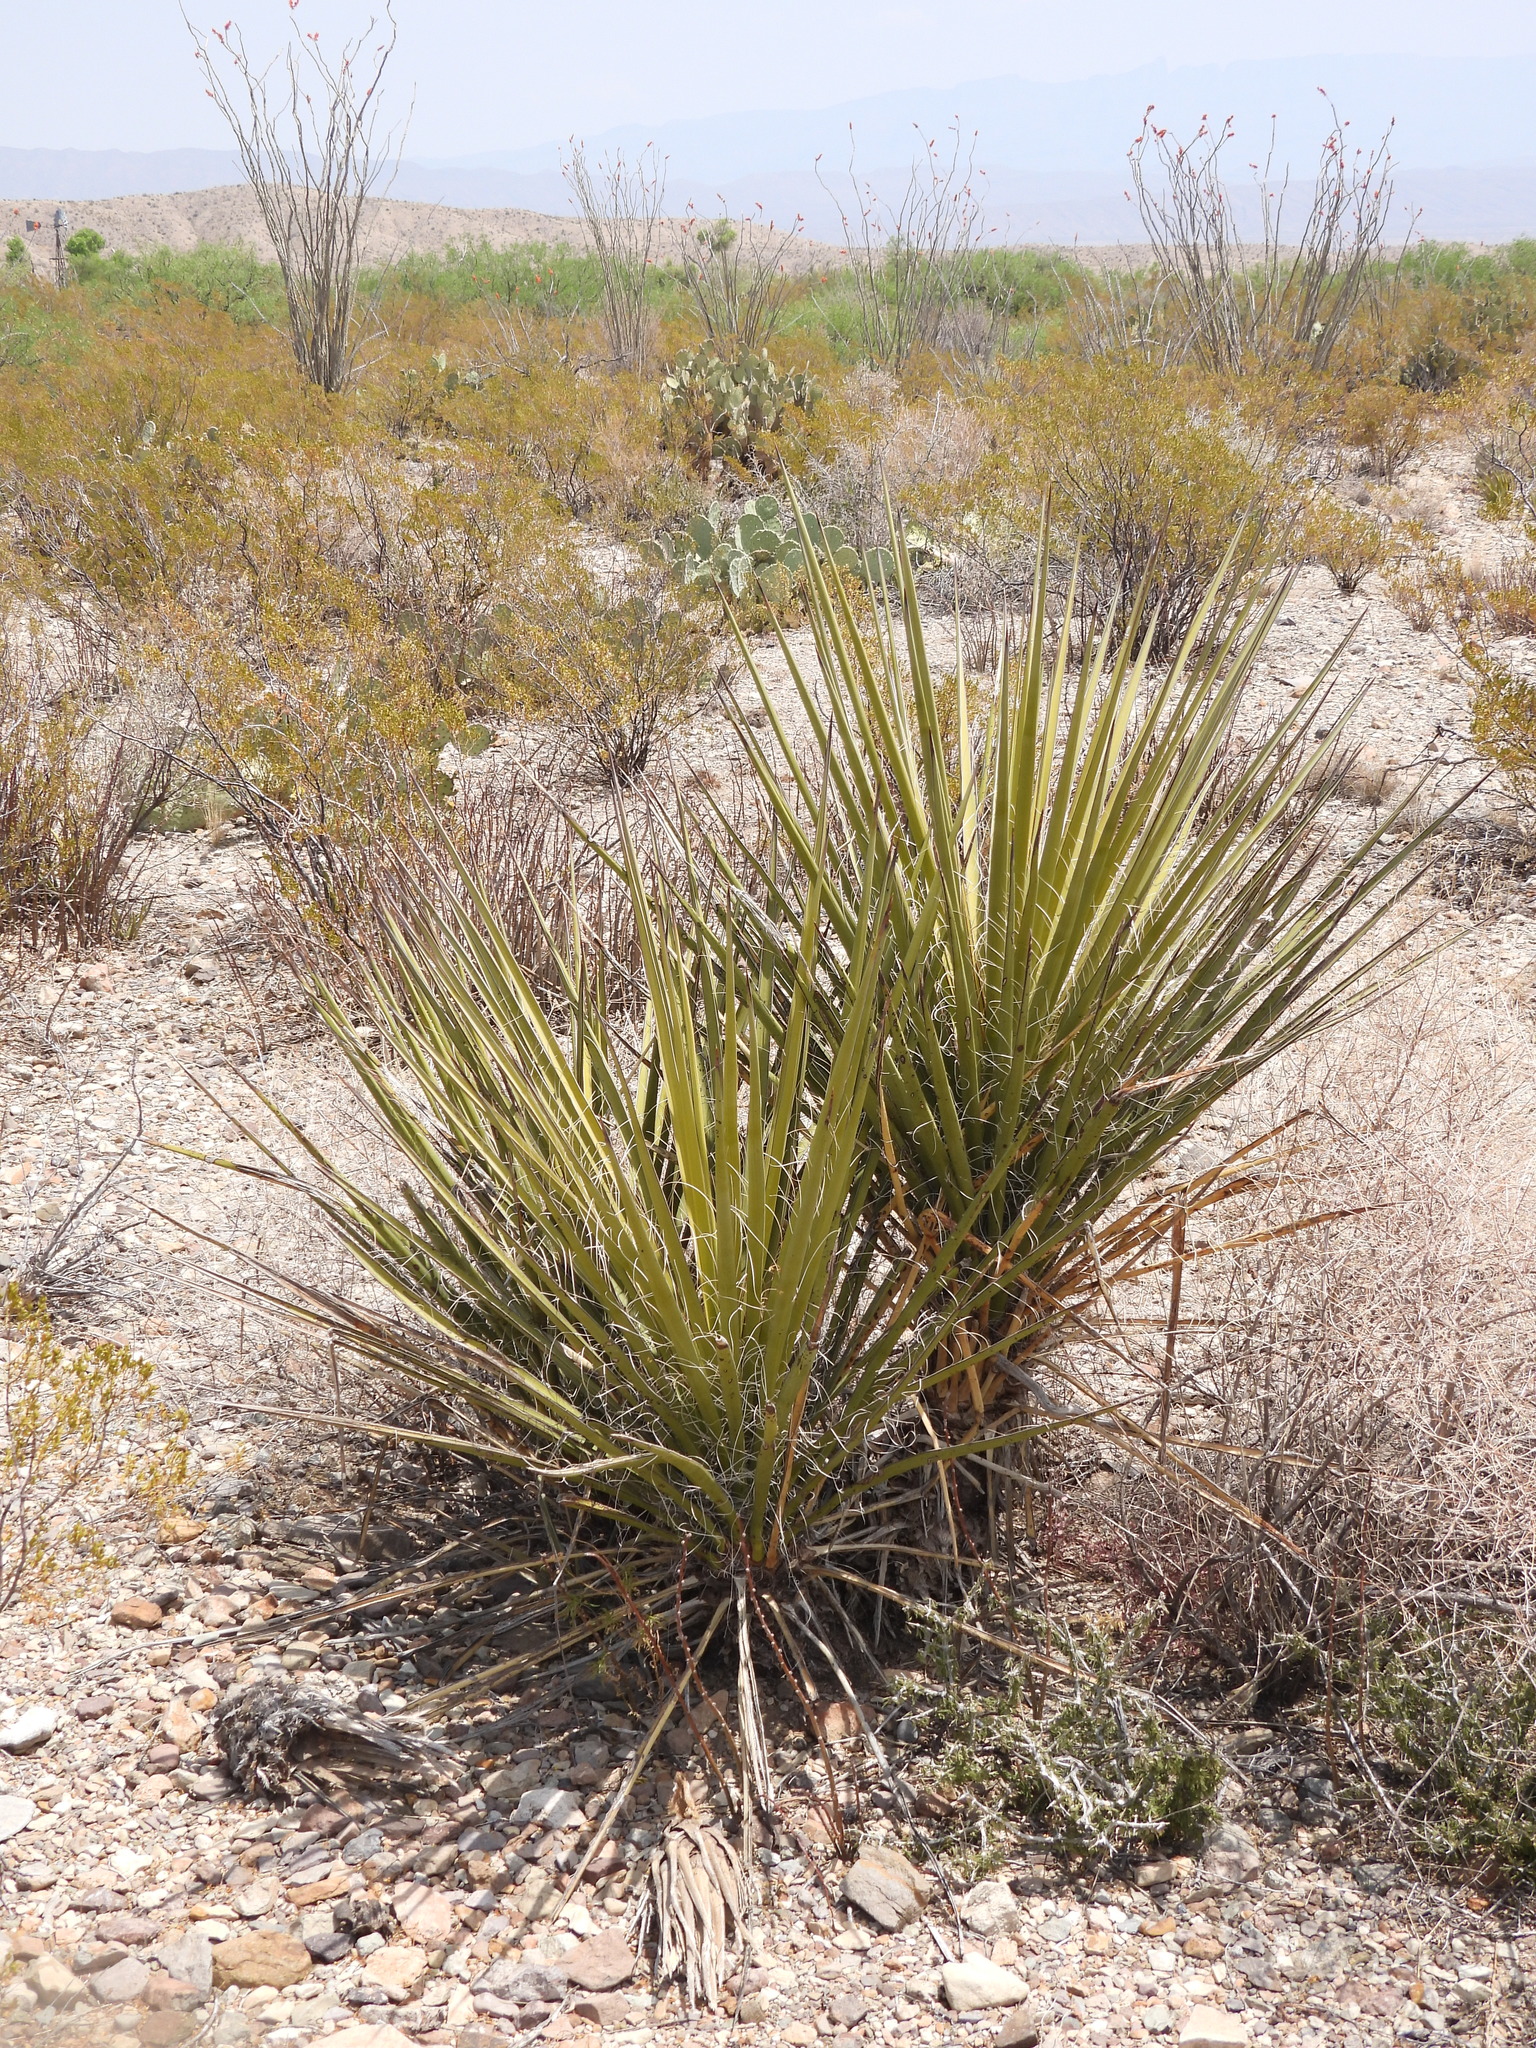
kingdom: Plantae
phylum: Tracheophyta
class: Liliopsida
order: Asparagales
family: Asparagaceae
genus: Yucca
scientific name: Yucca treculiana
